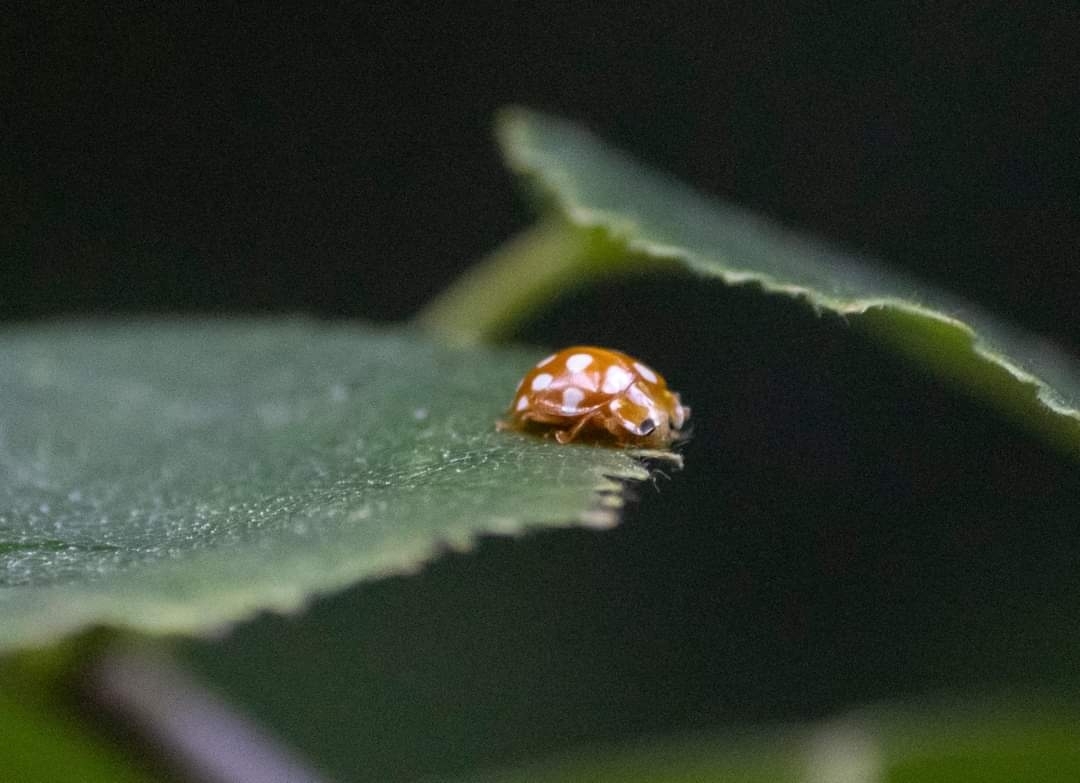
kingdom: Animalia
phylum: Arthropoda
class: Insecta
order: Coleoptera
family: Coccinellidae
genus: Halyzia
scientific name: Halyzia sedecimguttata
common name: Orange ladybird
